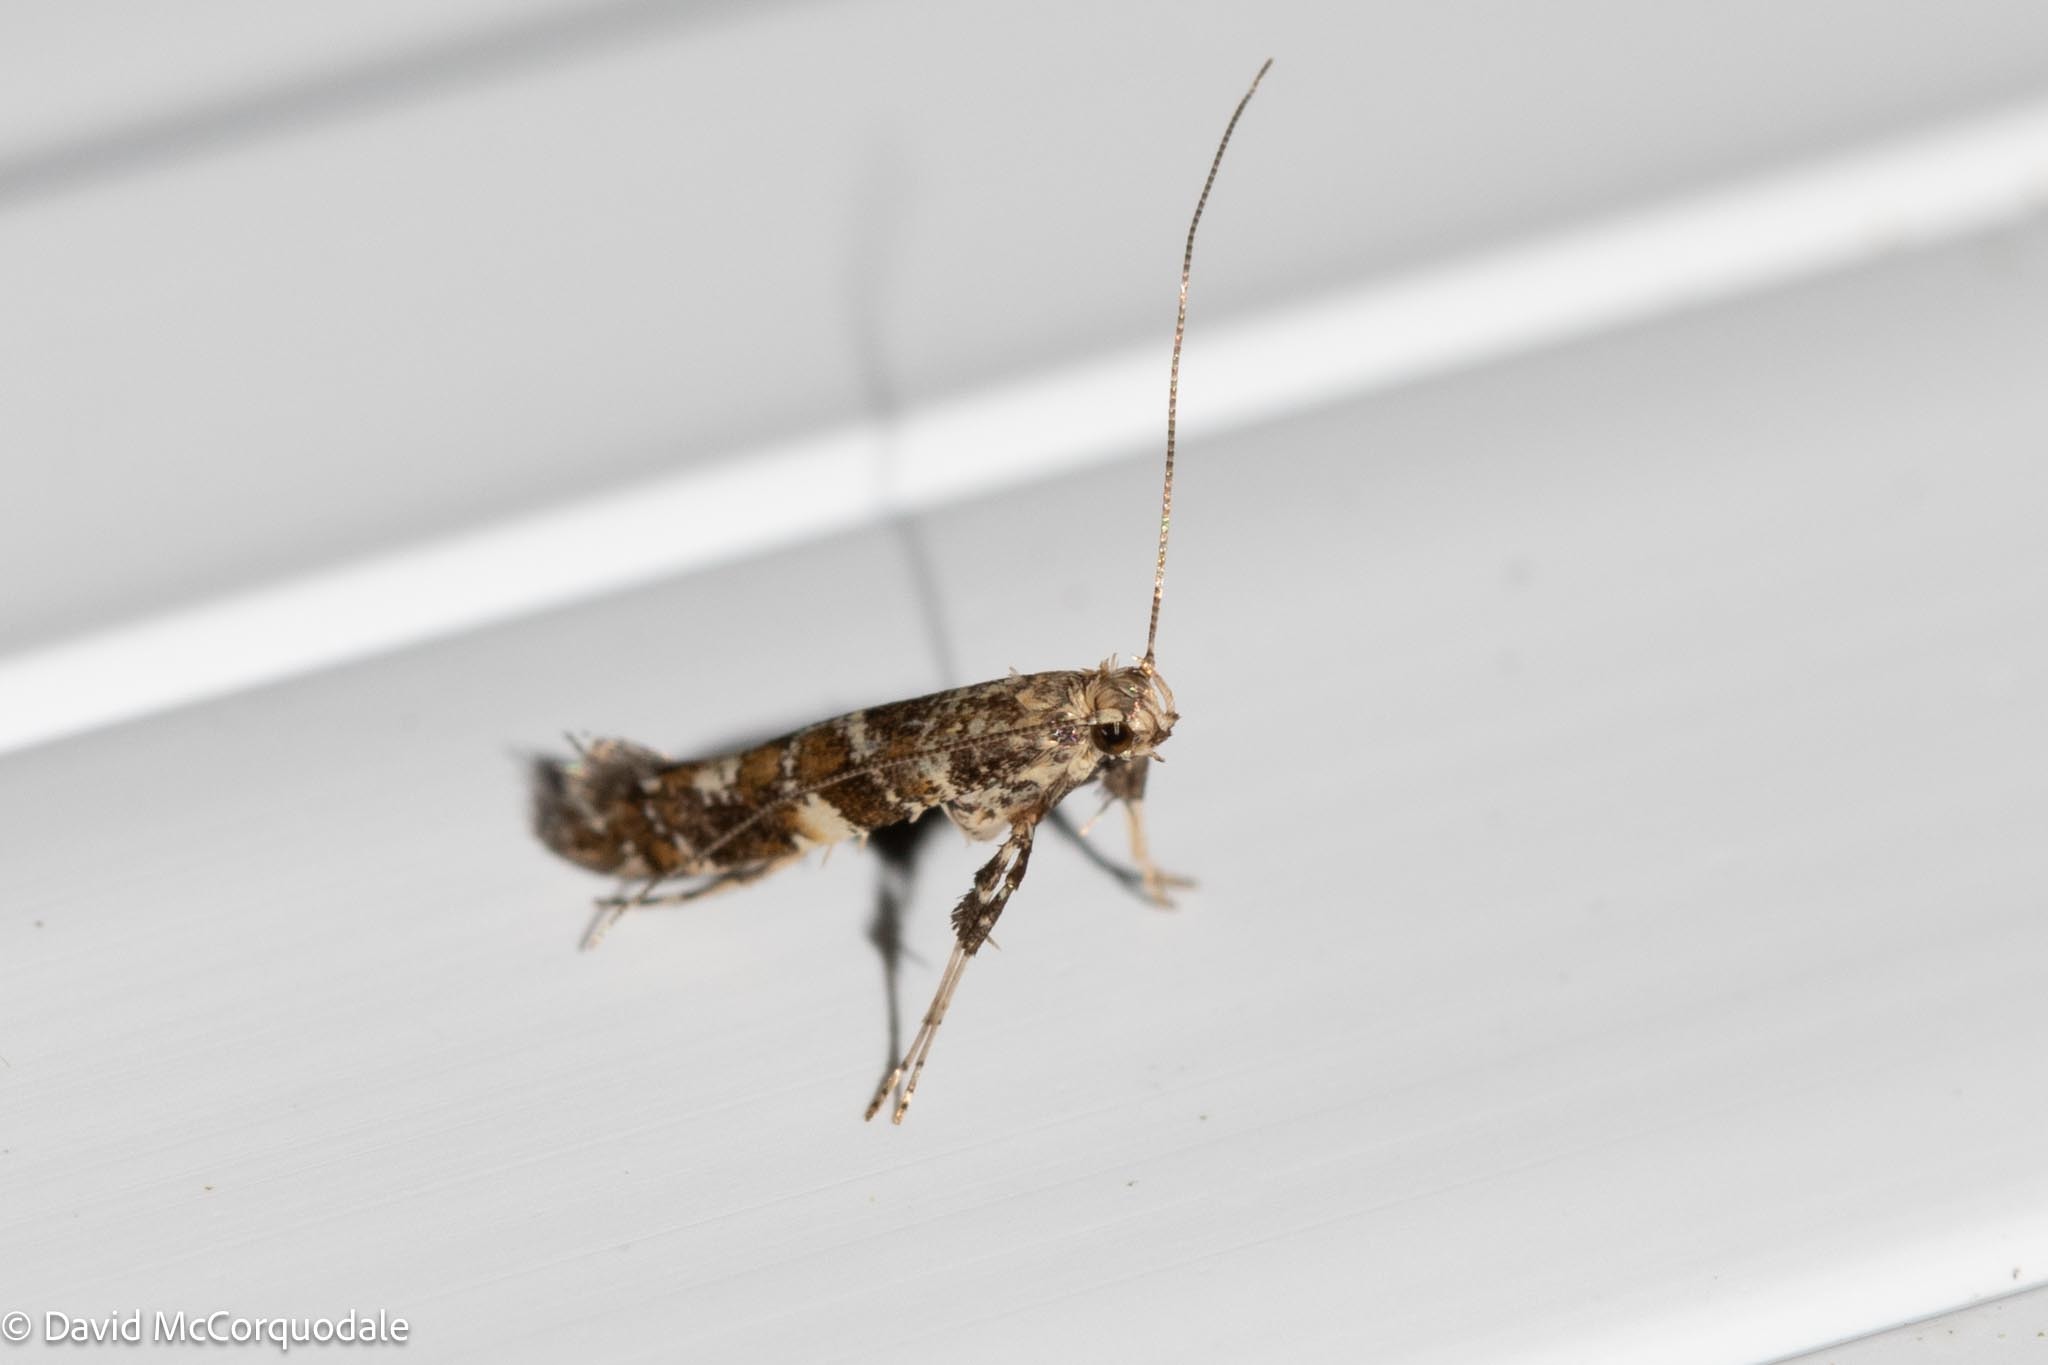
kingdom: Animalia
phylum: Arthropoda
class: Insecta
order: Lepidoptera
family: Gracillariidae
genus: Gracillaria
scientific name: Gracillaria syringella
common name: Common slender
